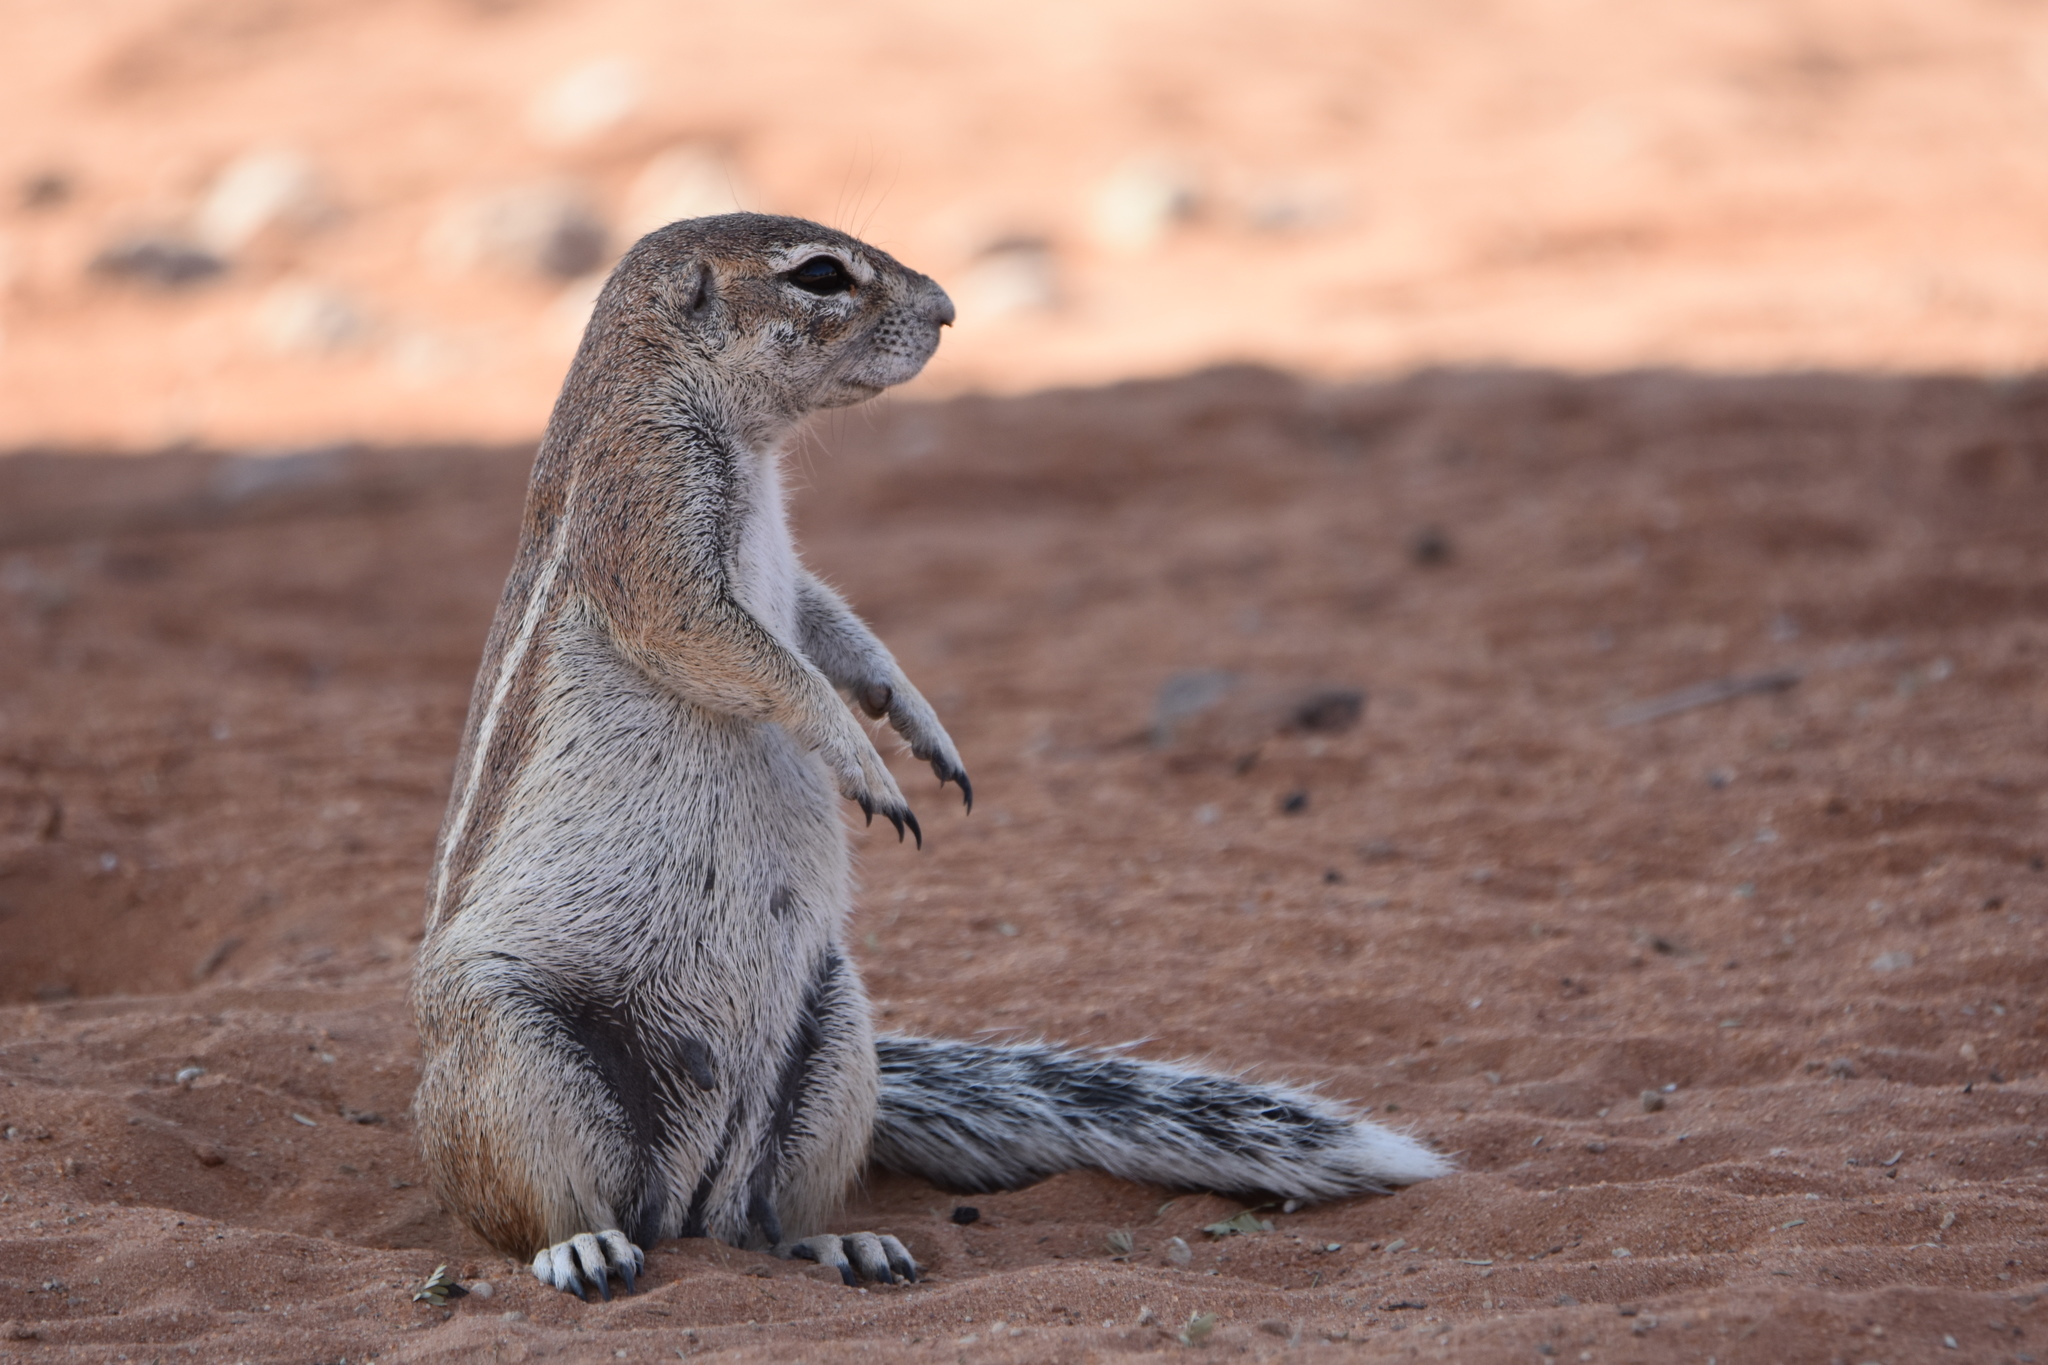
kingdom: Animalia
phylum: Chordata
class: Mammalia
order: Rodentia
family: Sciuridae
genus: Xerus
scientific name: Xerus inauris
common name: South african ground squirrel
